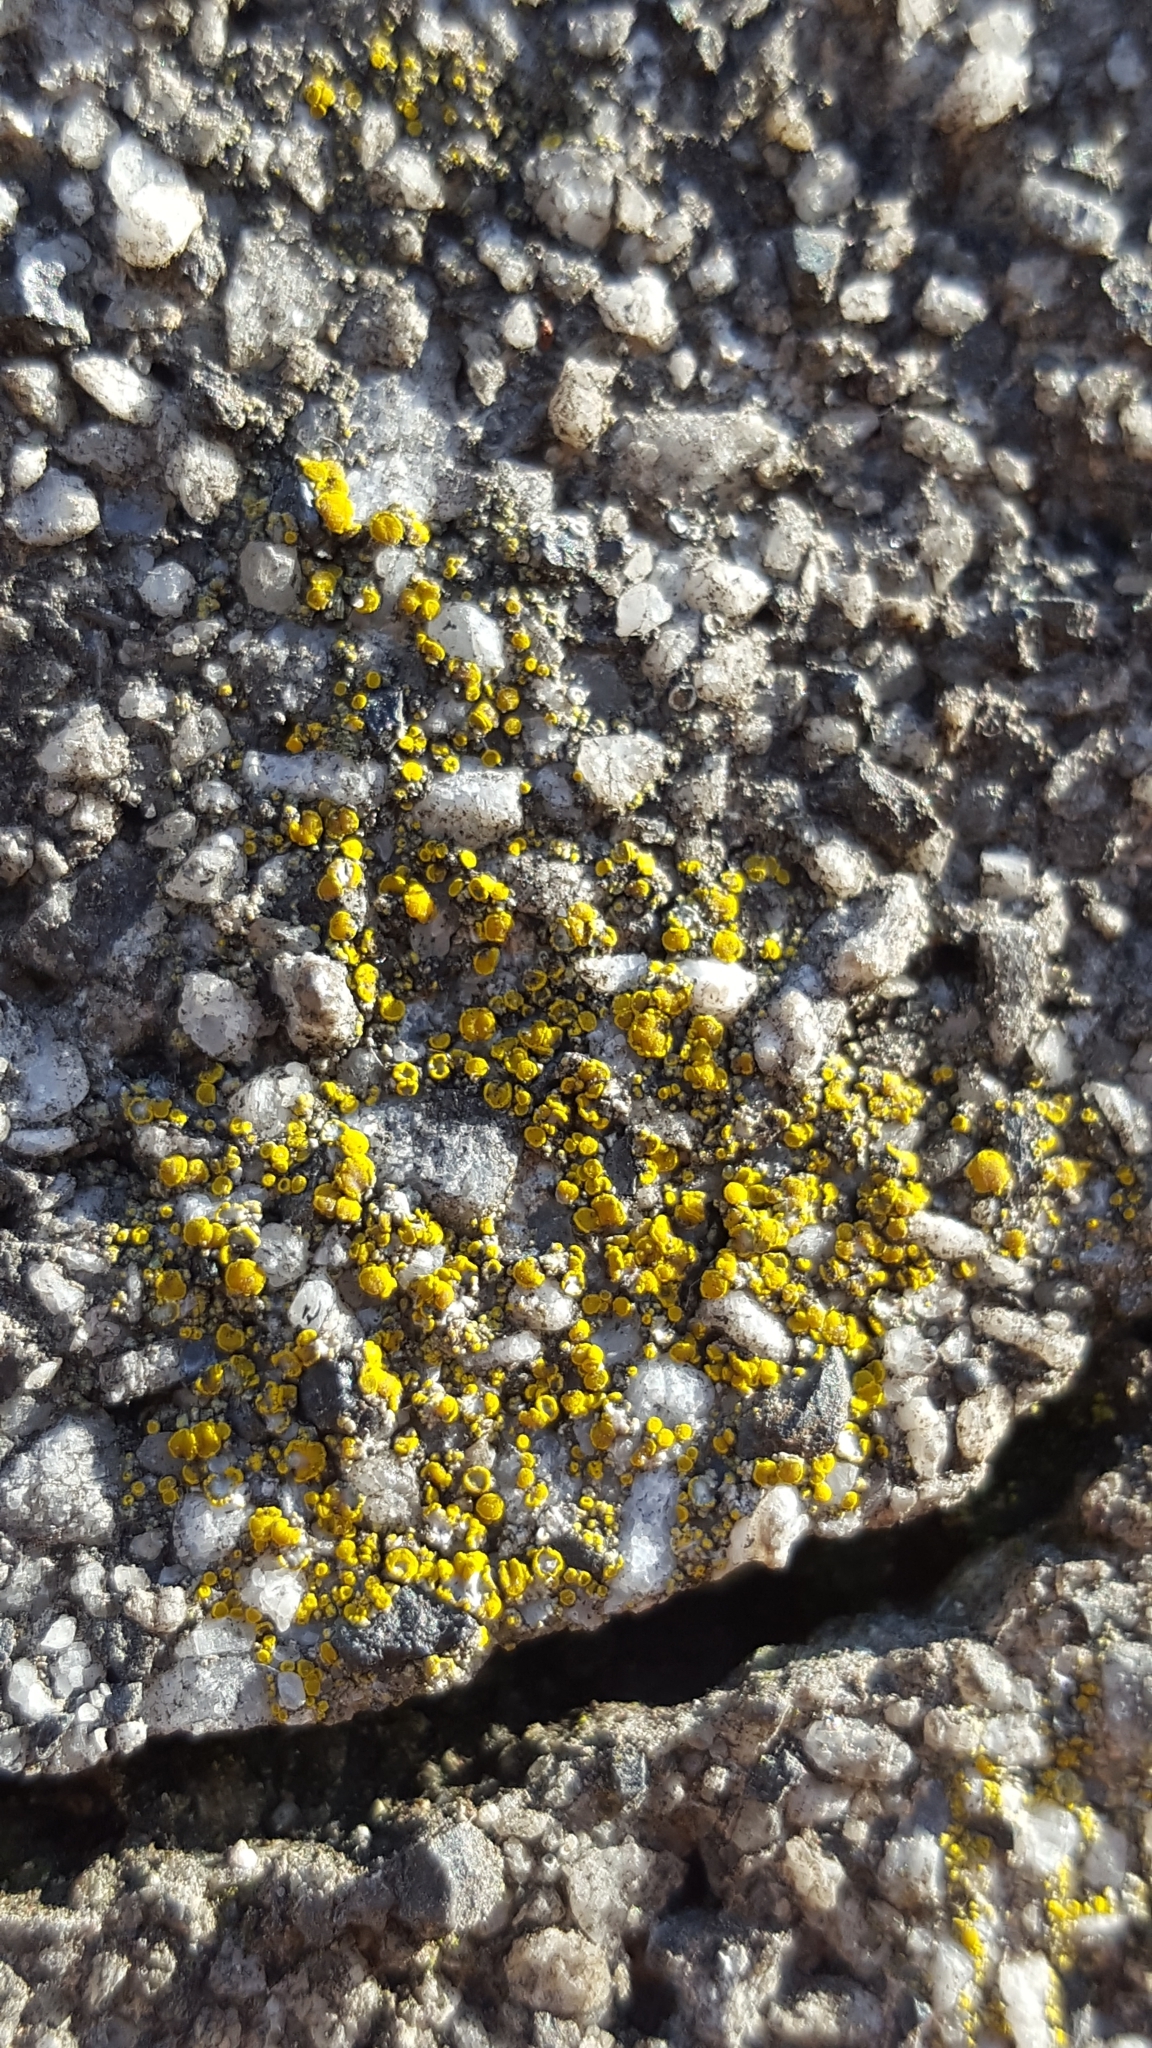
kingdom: Fungi
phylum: Ascomycota
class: Candelariomycetes
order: Candelariales
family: Candelariaceae
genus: Candelariella
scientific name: Candelariella aurella
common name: Hidden goldspeck lichen
